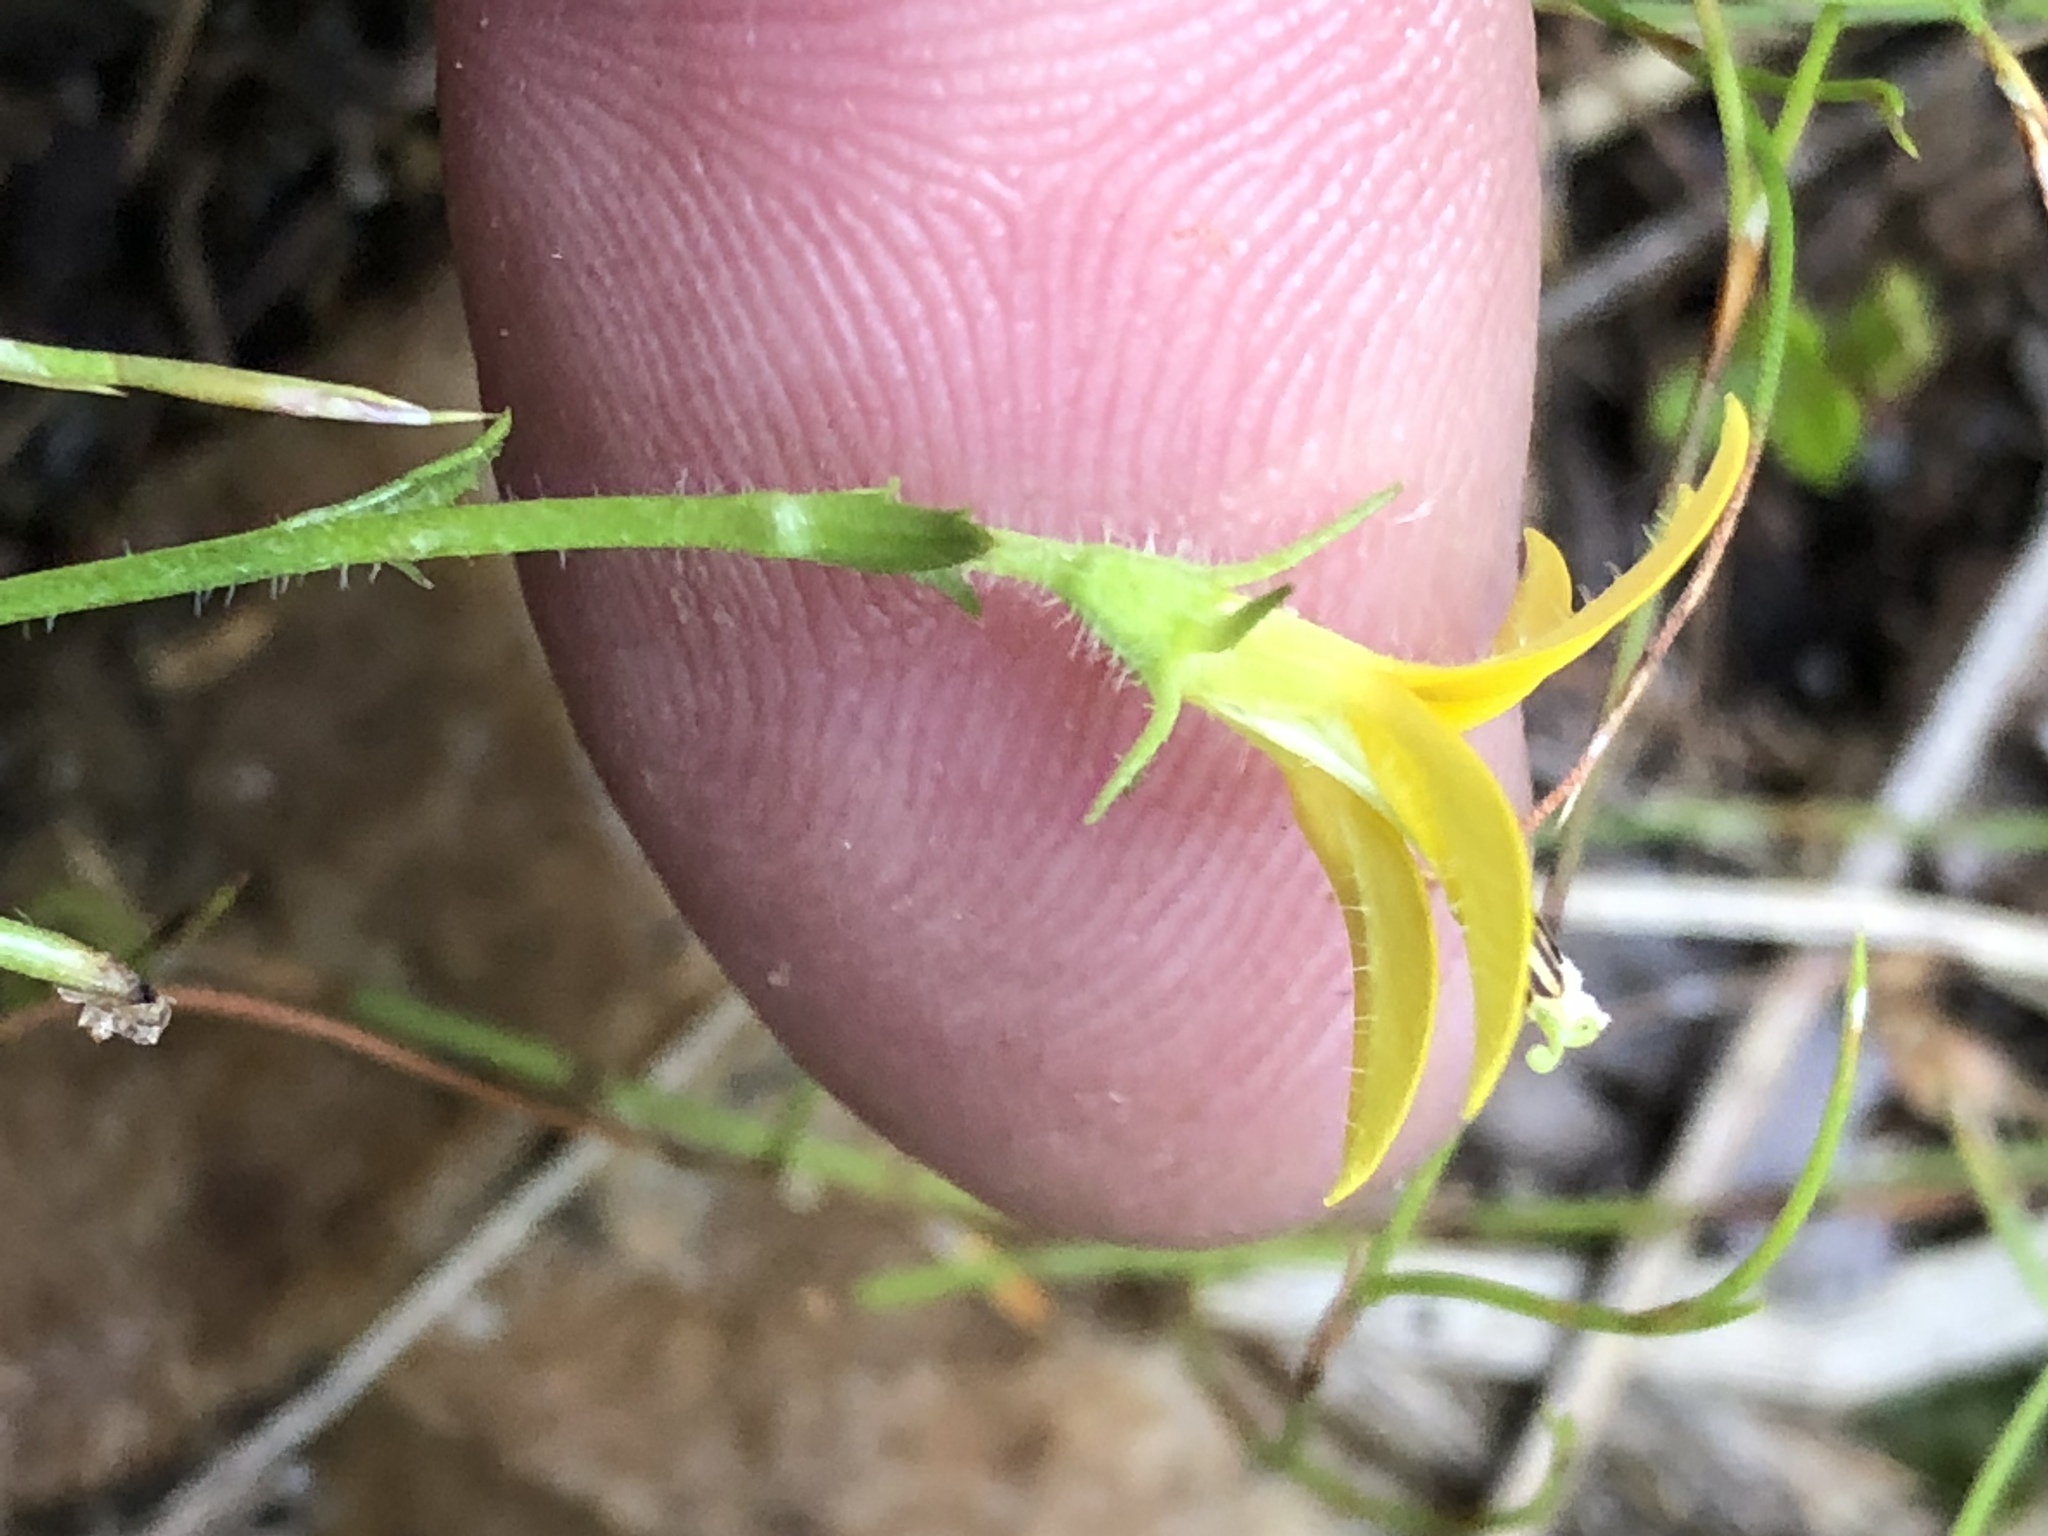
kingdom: Plantae
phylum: Tracheophyta
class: Magnoliopsida
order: Asterales
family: Campanulaceae
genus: Monopsis
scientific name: Monopsis lutea
